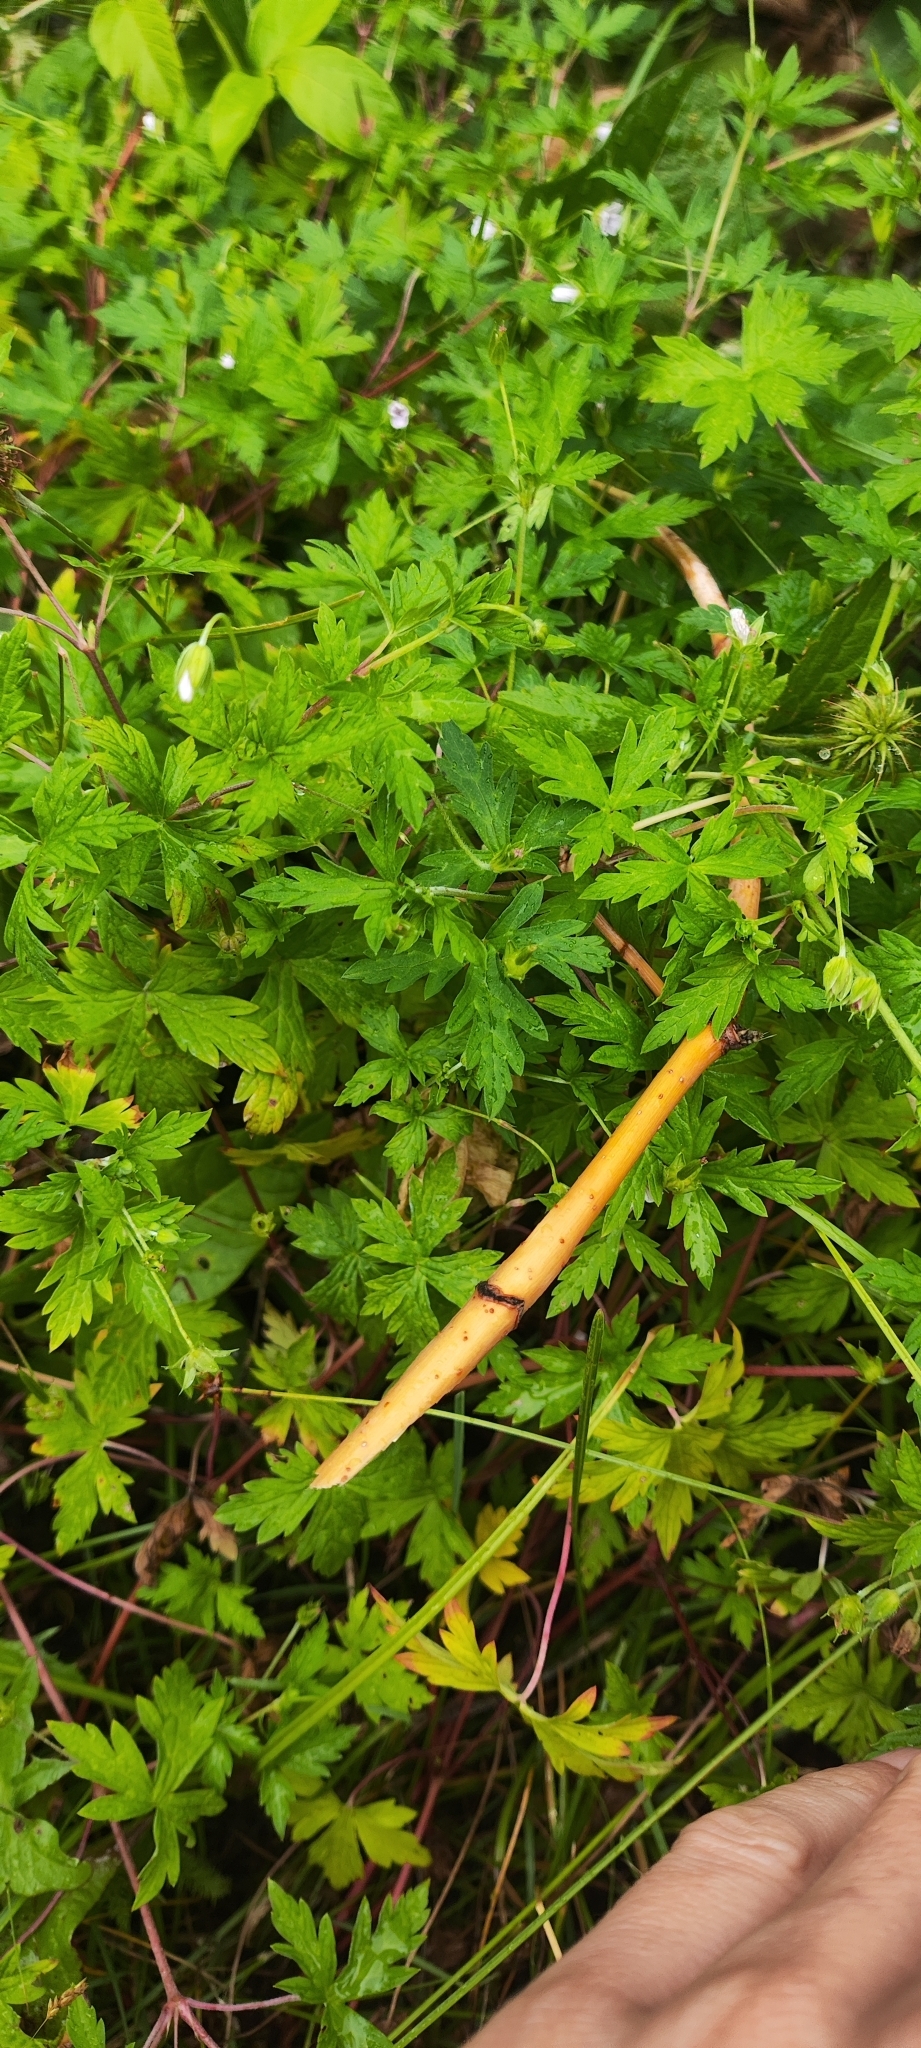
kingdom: Plantae
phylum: Tracheophyta
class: Magnoliopsida
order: Geraniales
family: Geraniaceae
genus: Geranium
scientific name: Geranium sibiricum
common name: Siberian crane's-bill
